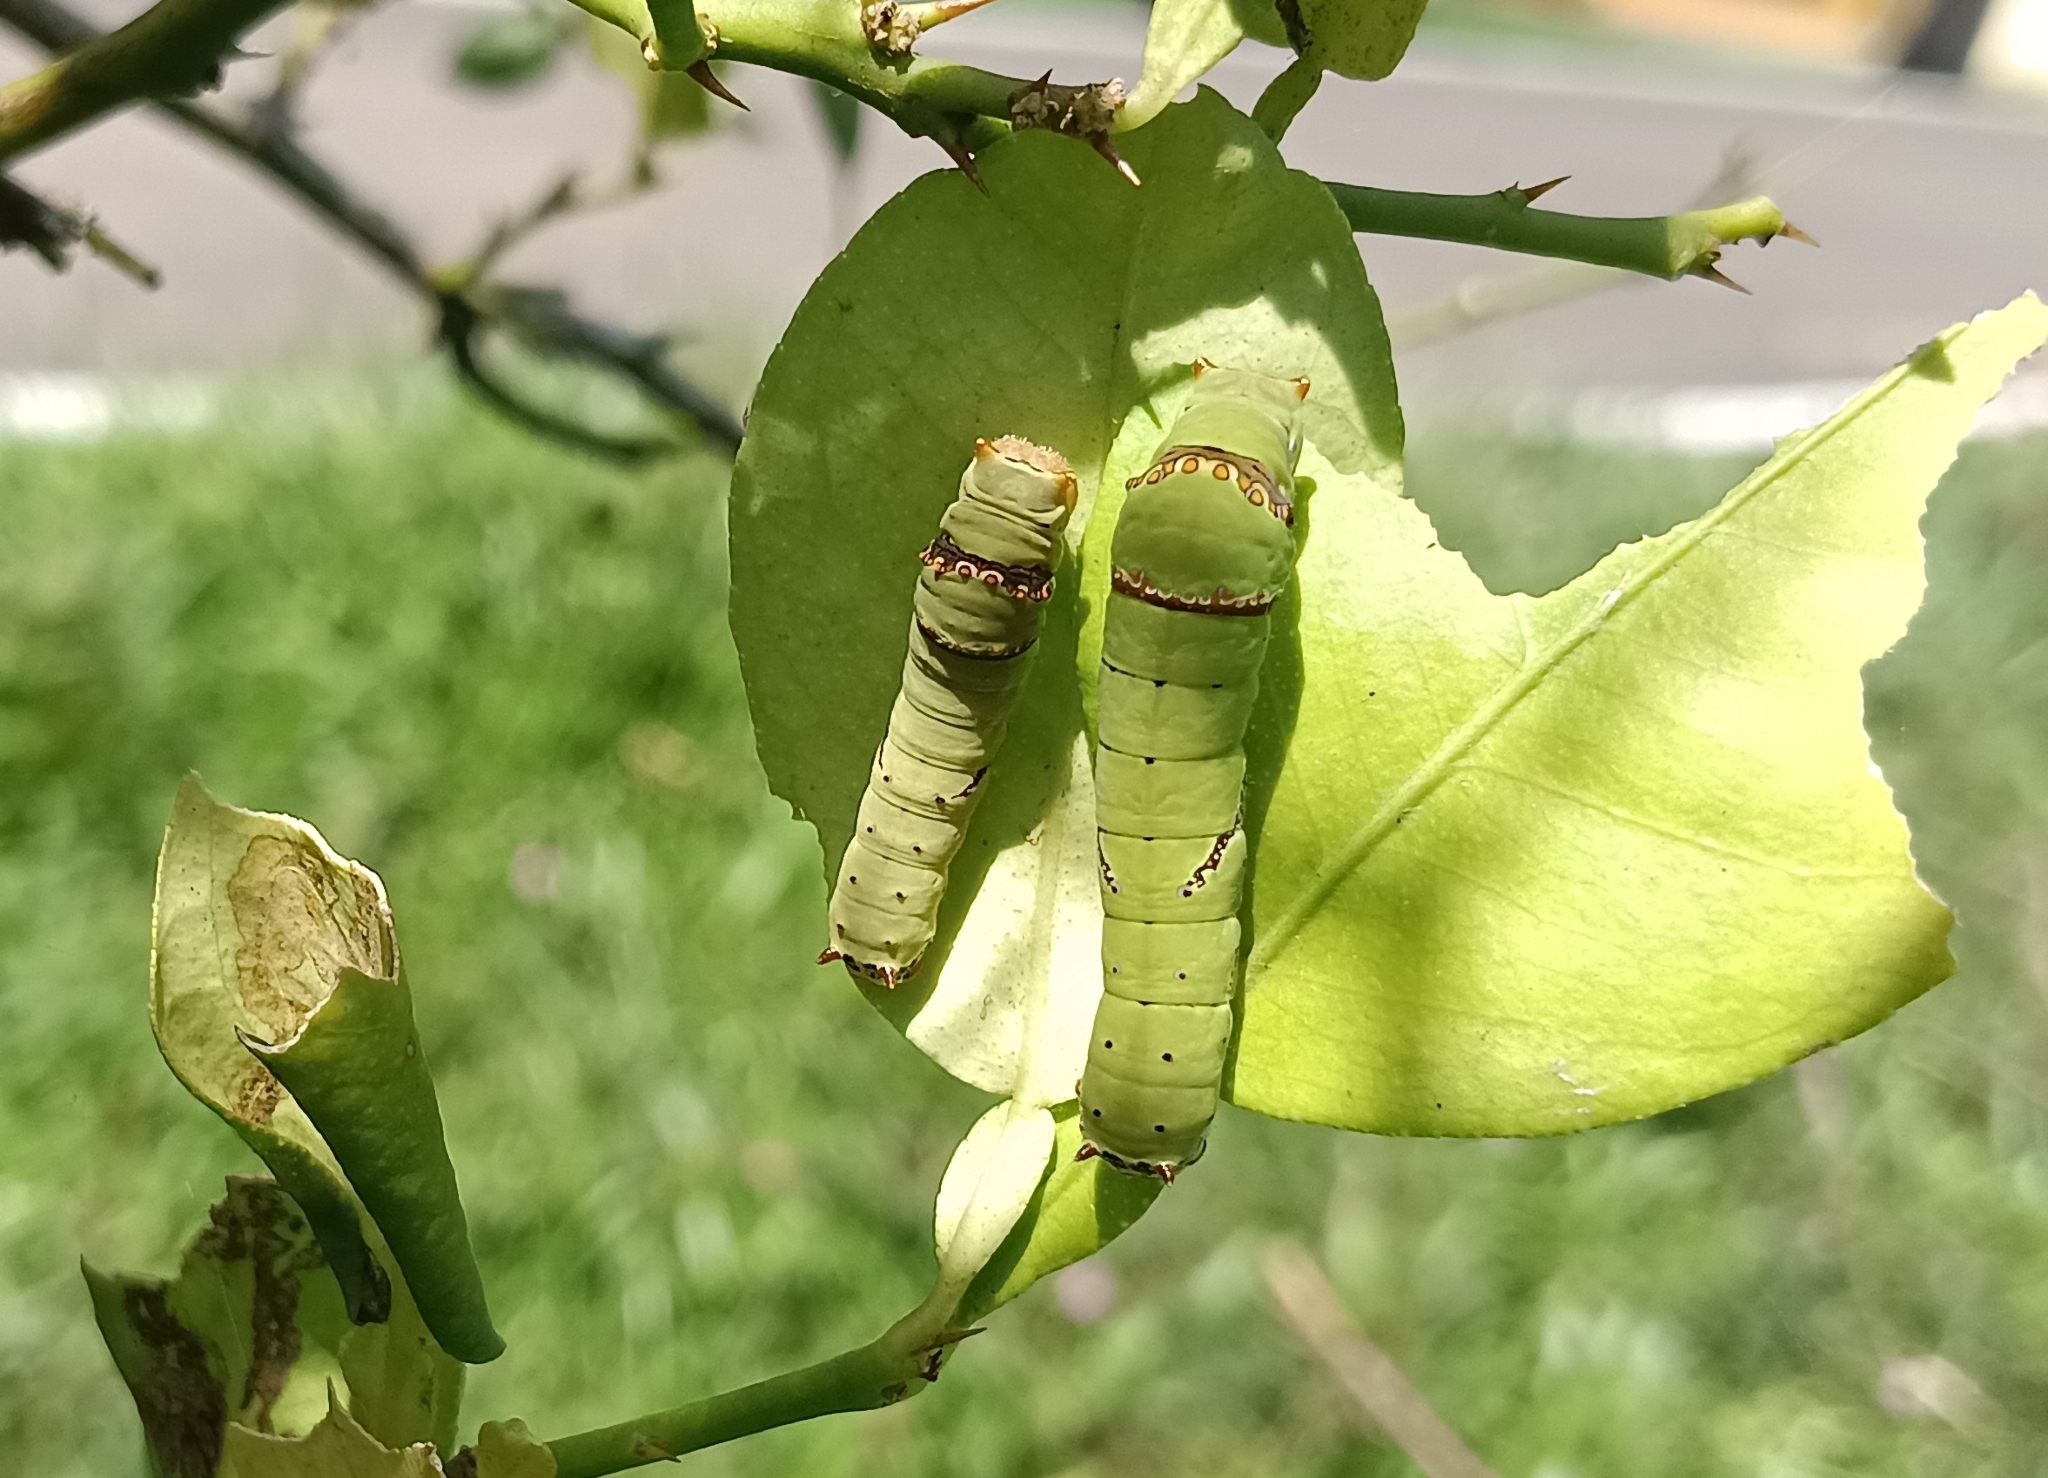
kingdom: Animalia
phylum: Arthropoda
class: Insecta
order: Lepidoptera
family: Papilionidae
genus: Papilio
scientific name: Papilio demoleus
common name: Lime butterfly
